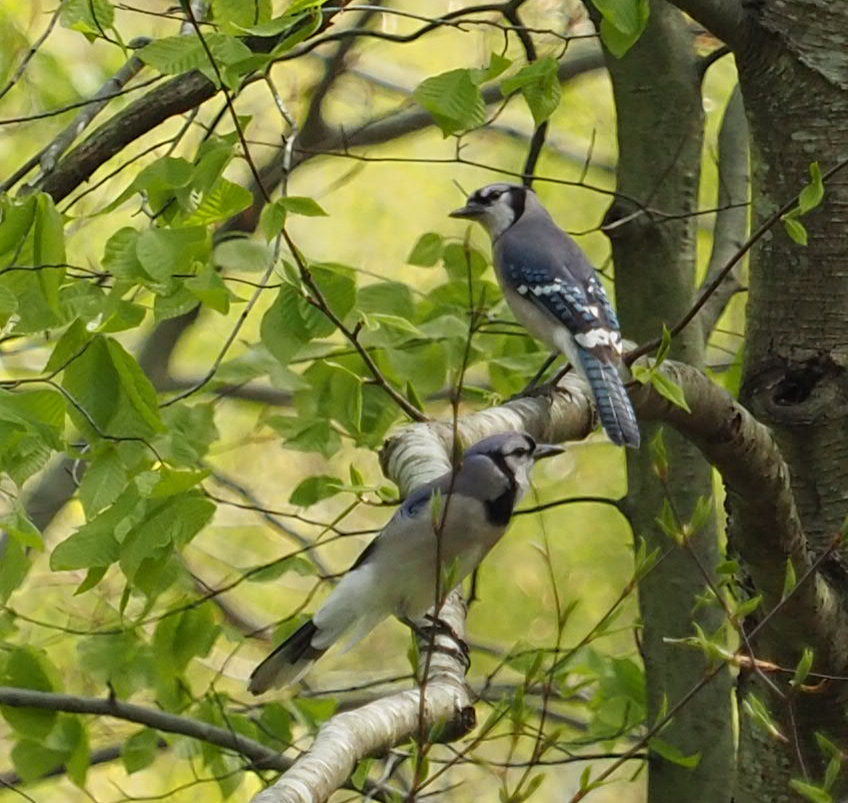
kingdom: Animalia
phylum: Chordata
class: Aves
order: Passeriformes
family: Corvidae
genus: Cyanocitta
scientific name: Cyanocitta cristata
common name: Blue jay
